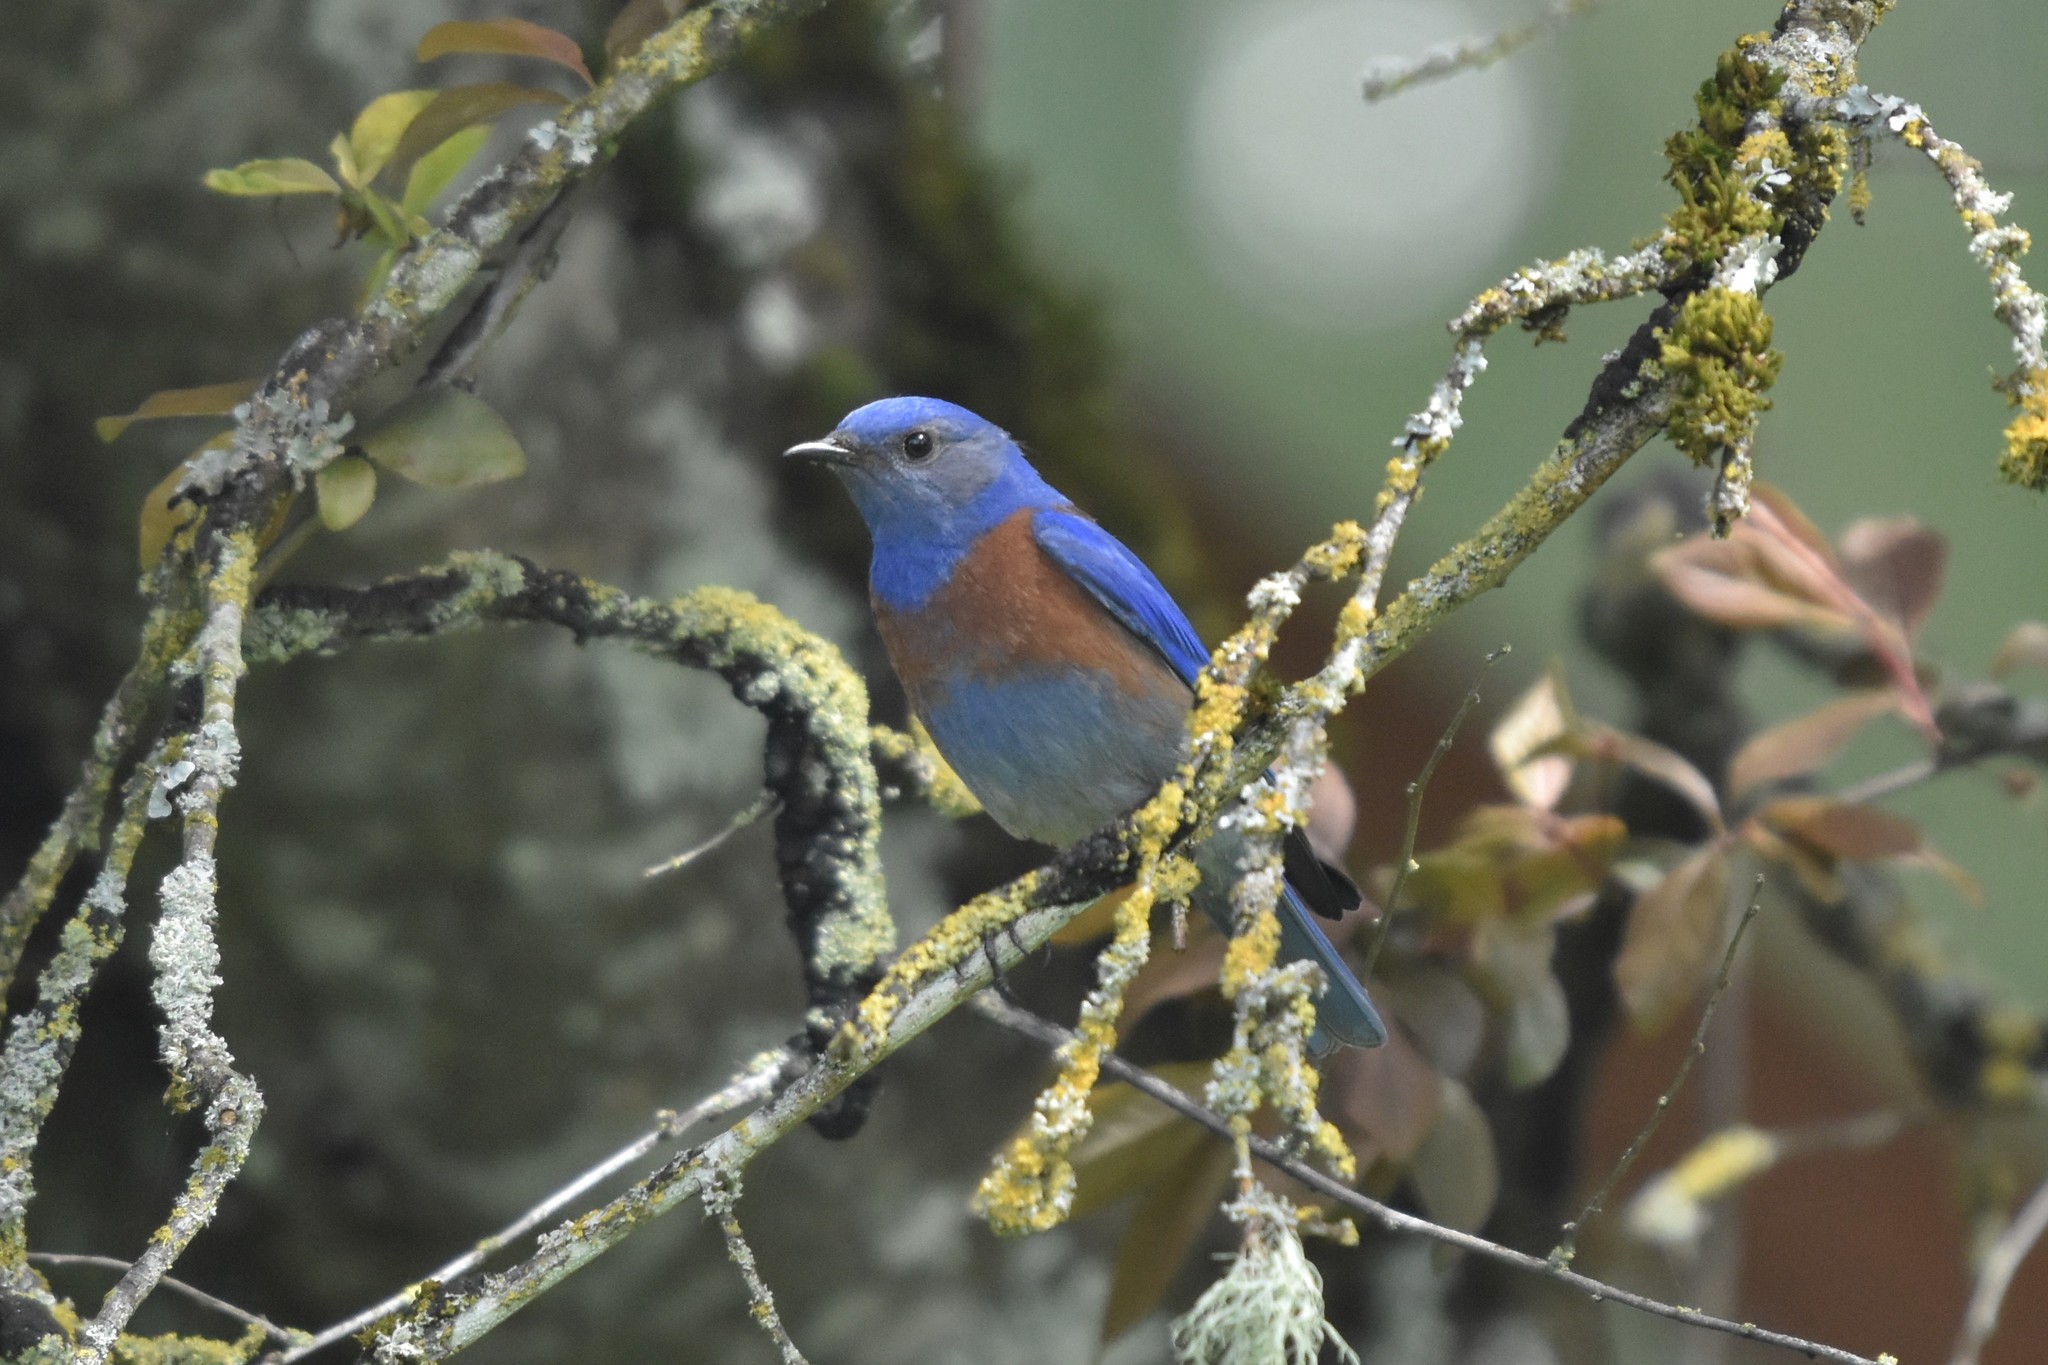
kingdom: Animalia
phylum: Chordata
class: Aves
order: Passeriformes
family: Turdidae
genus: Sialia
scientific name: Sialia mexicana
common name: Western bluebird
